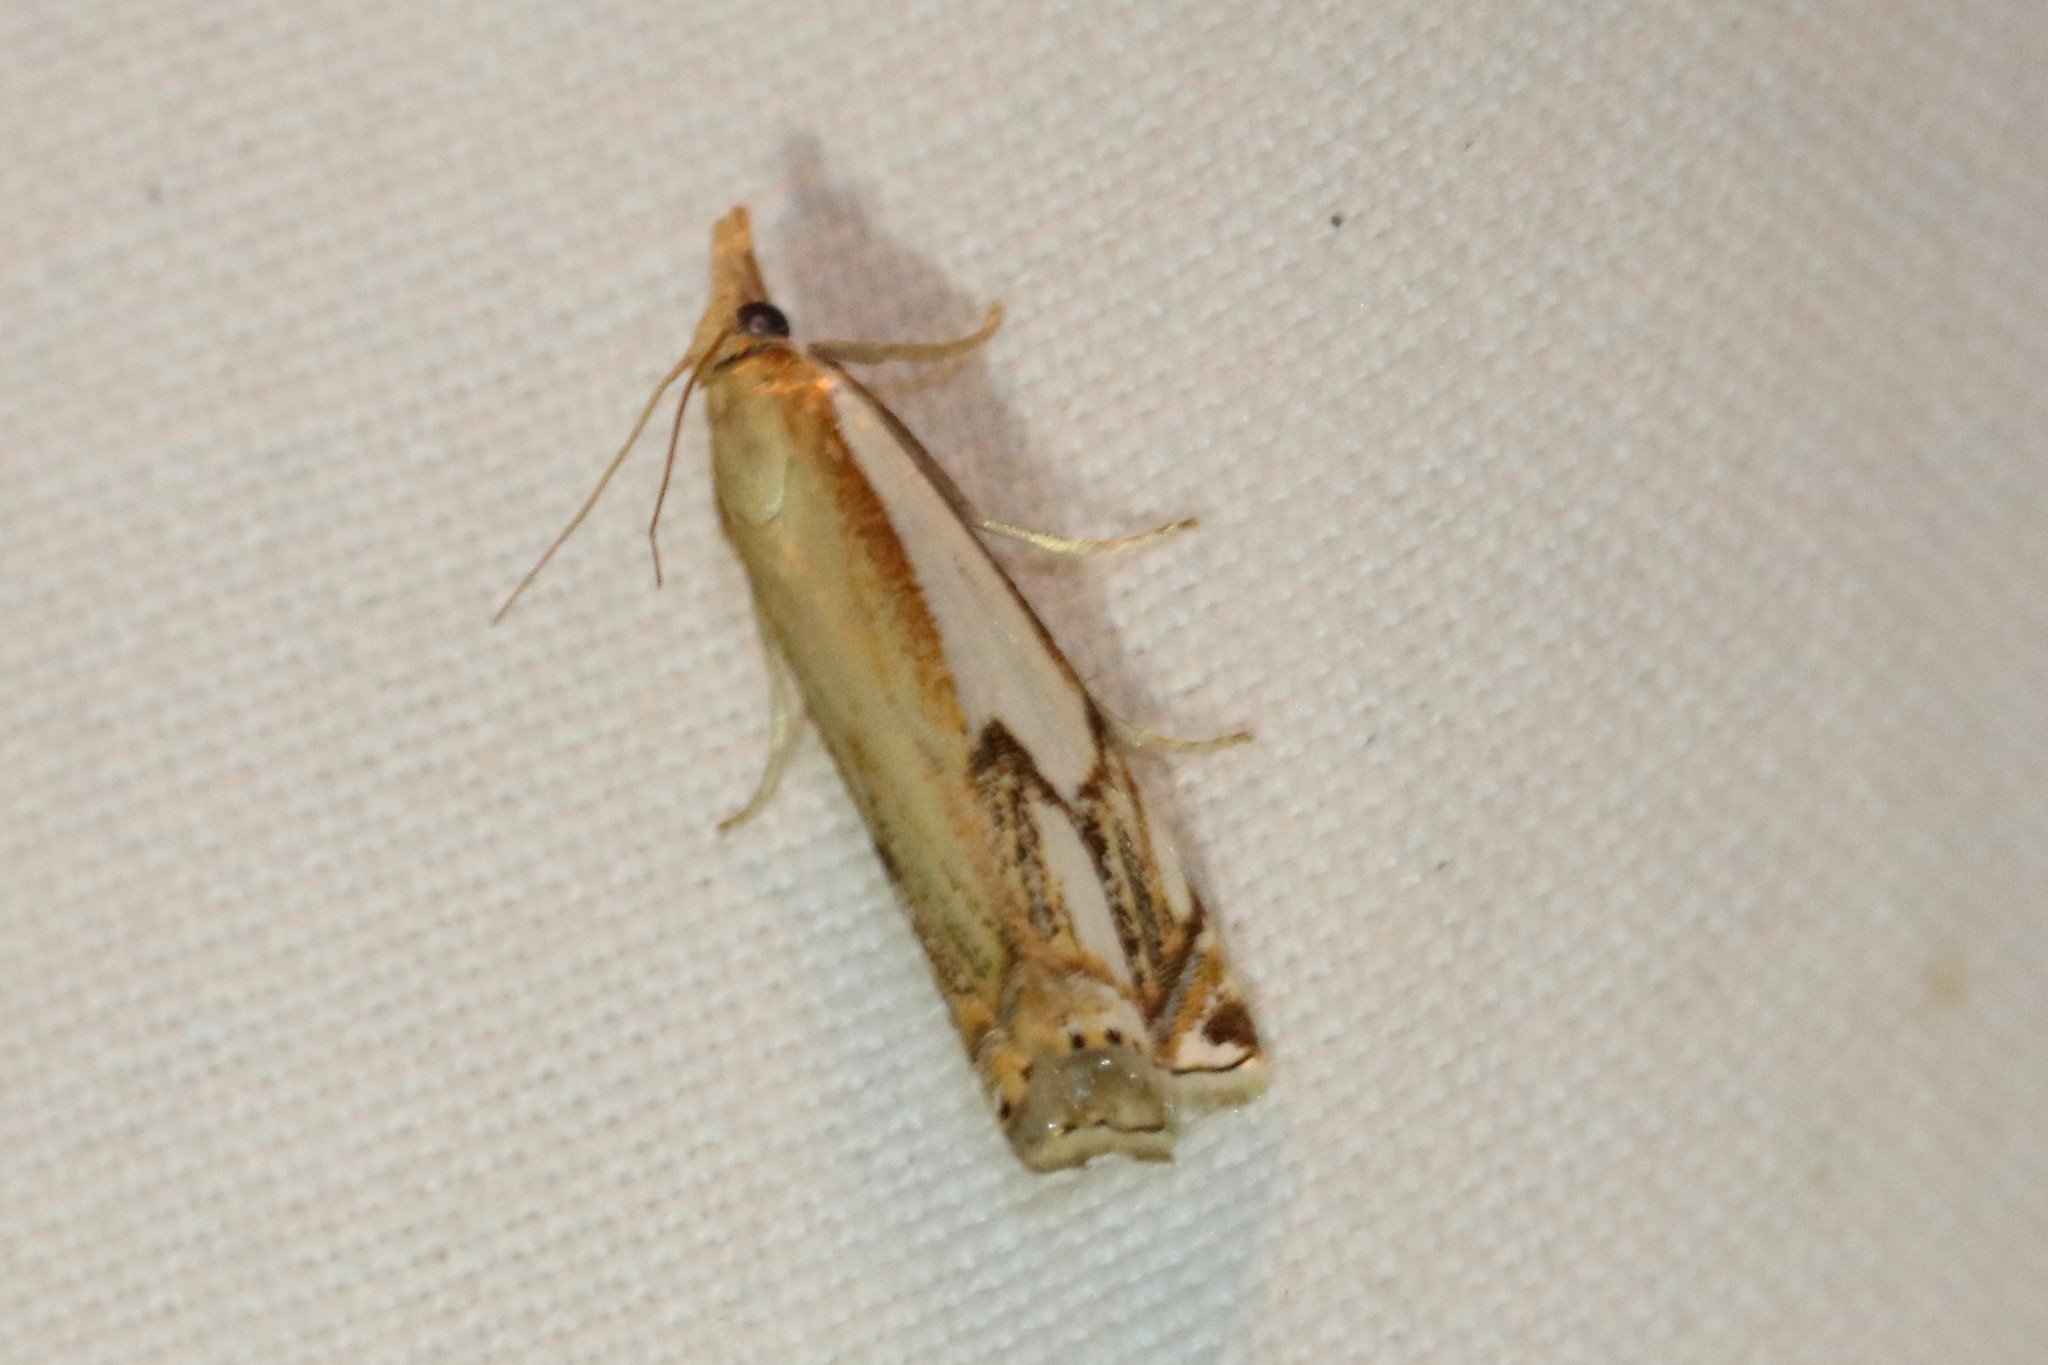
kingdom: Animalia
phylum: Arthropoda
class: Insecta
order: Lepidoptera
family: Crambidae
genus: Crambus
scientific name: Crambus agitatellus
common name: Double-banded grass-veneer
